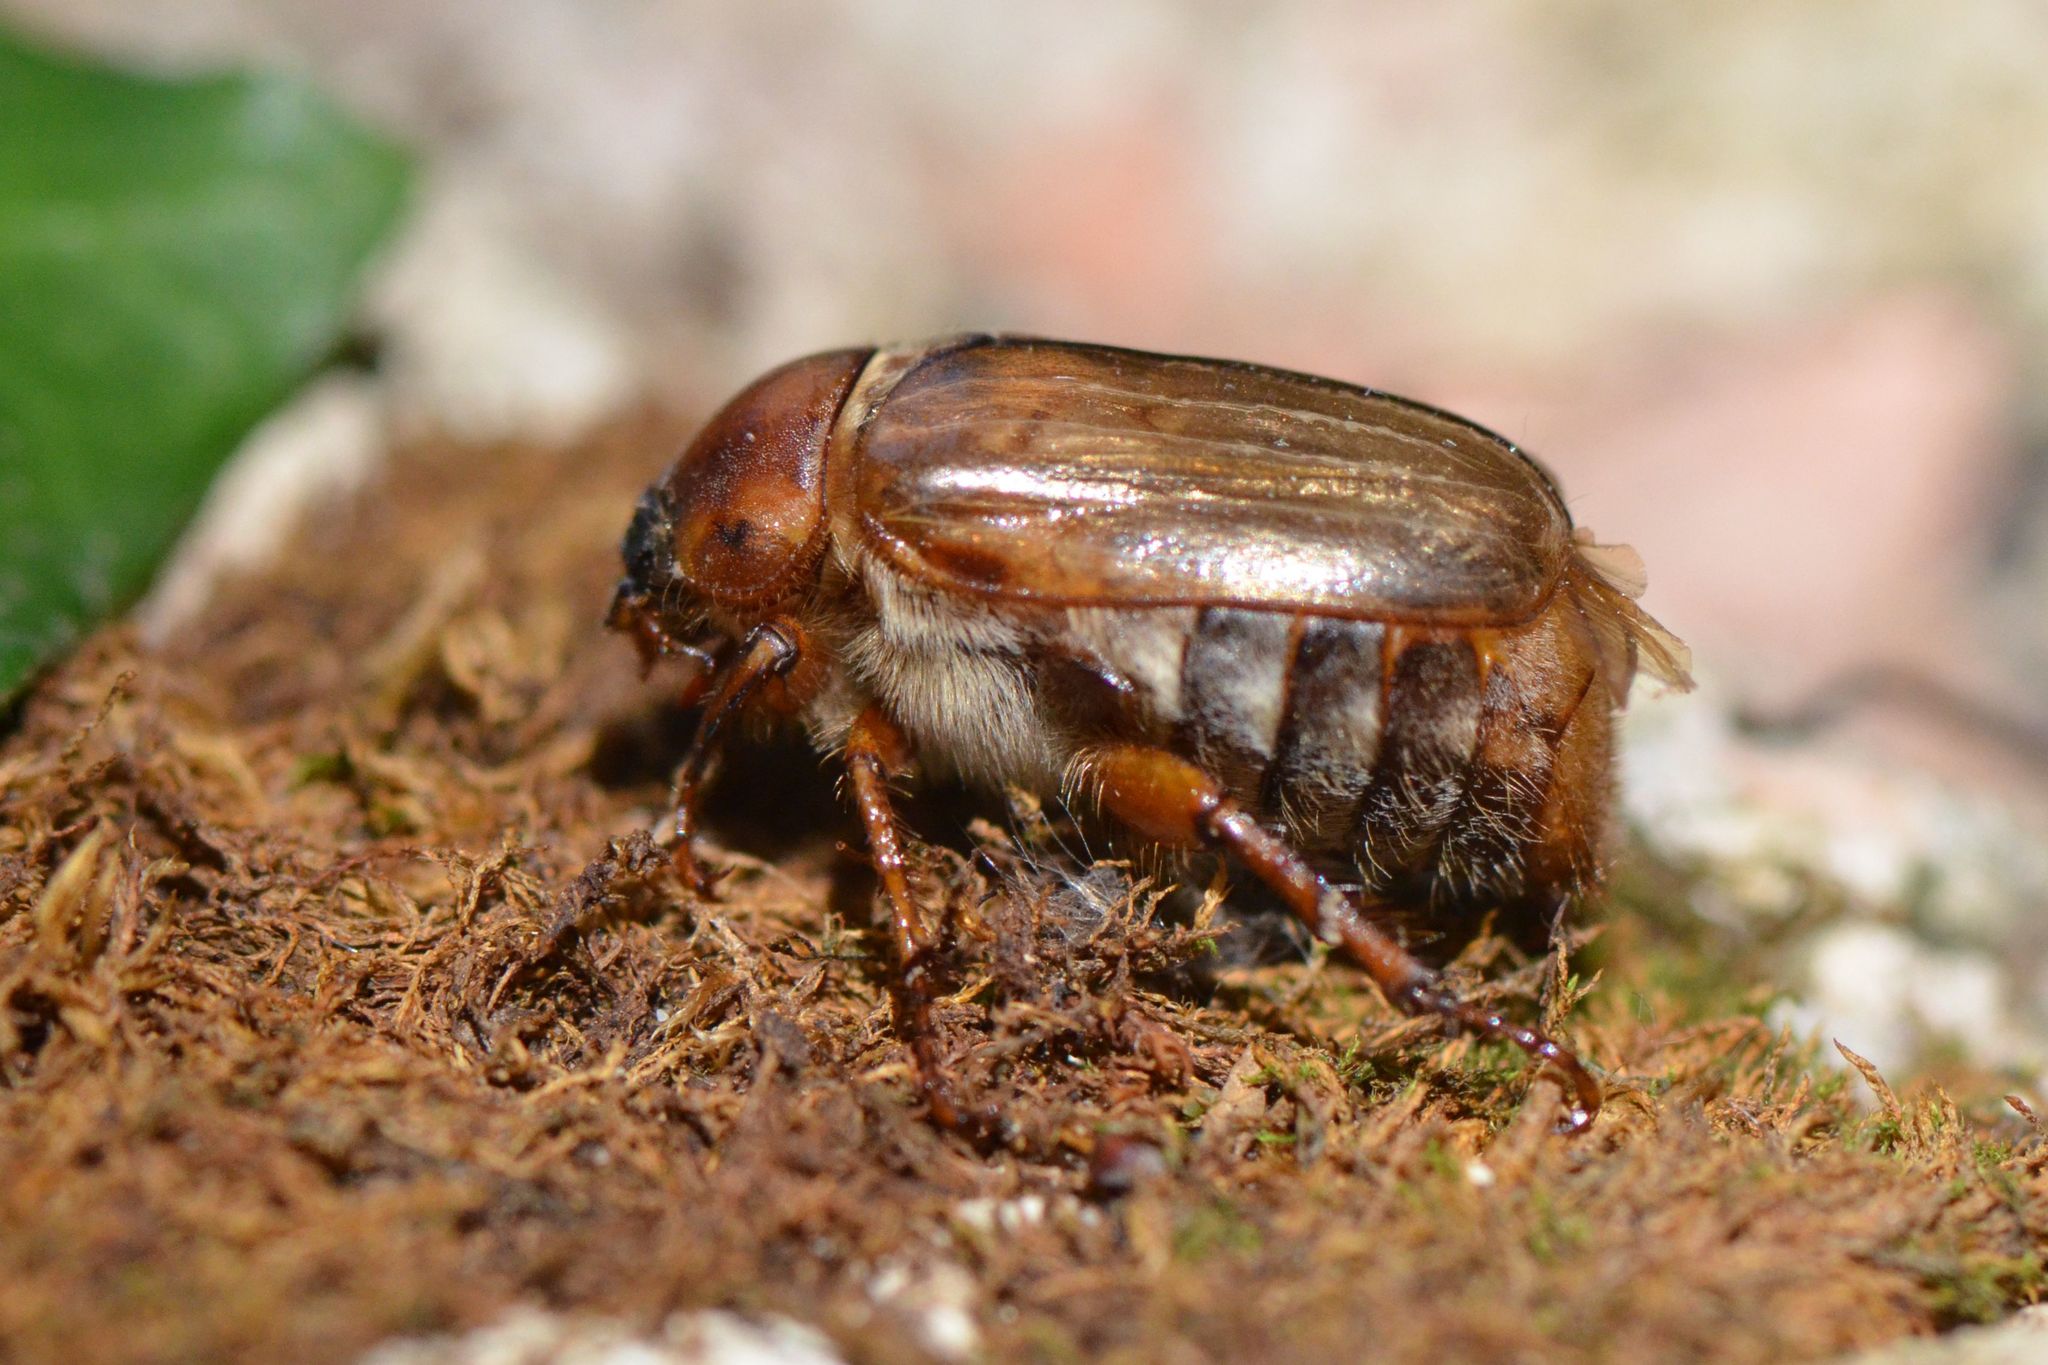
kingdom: Animalia
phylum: Arthropoda
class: Insecta
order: Coleoptera
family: Scarabaeidae
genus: Amphimallon
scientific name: Amphimallon solstitiale
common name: Summer chafer
